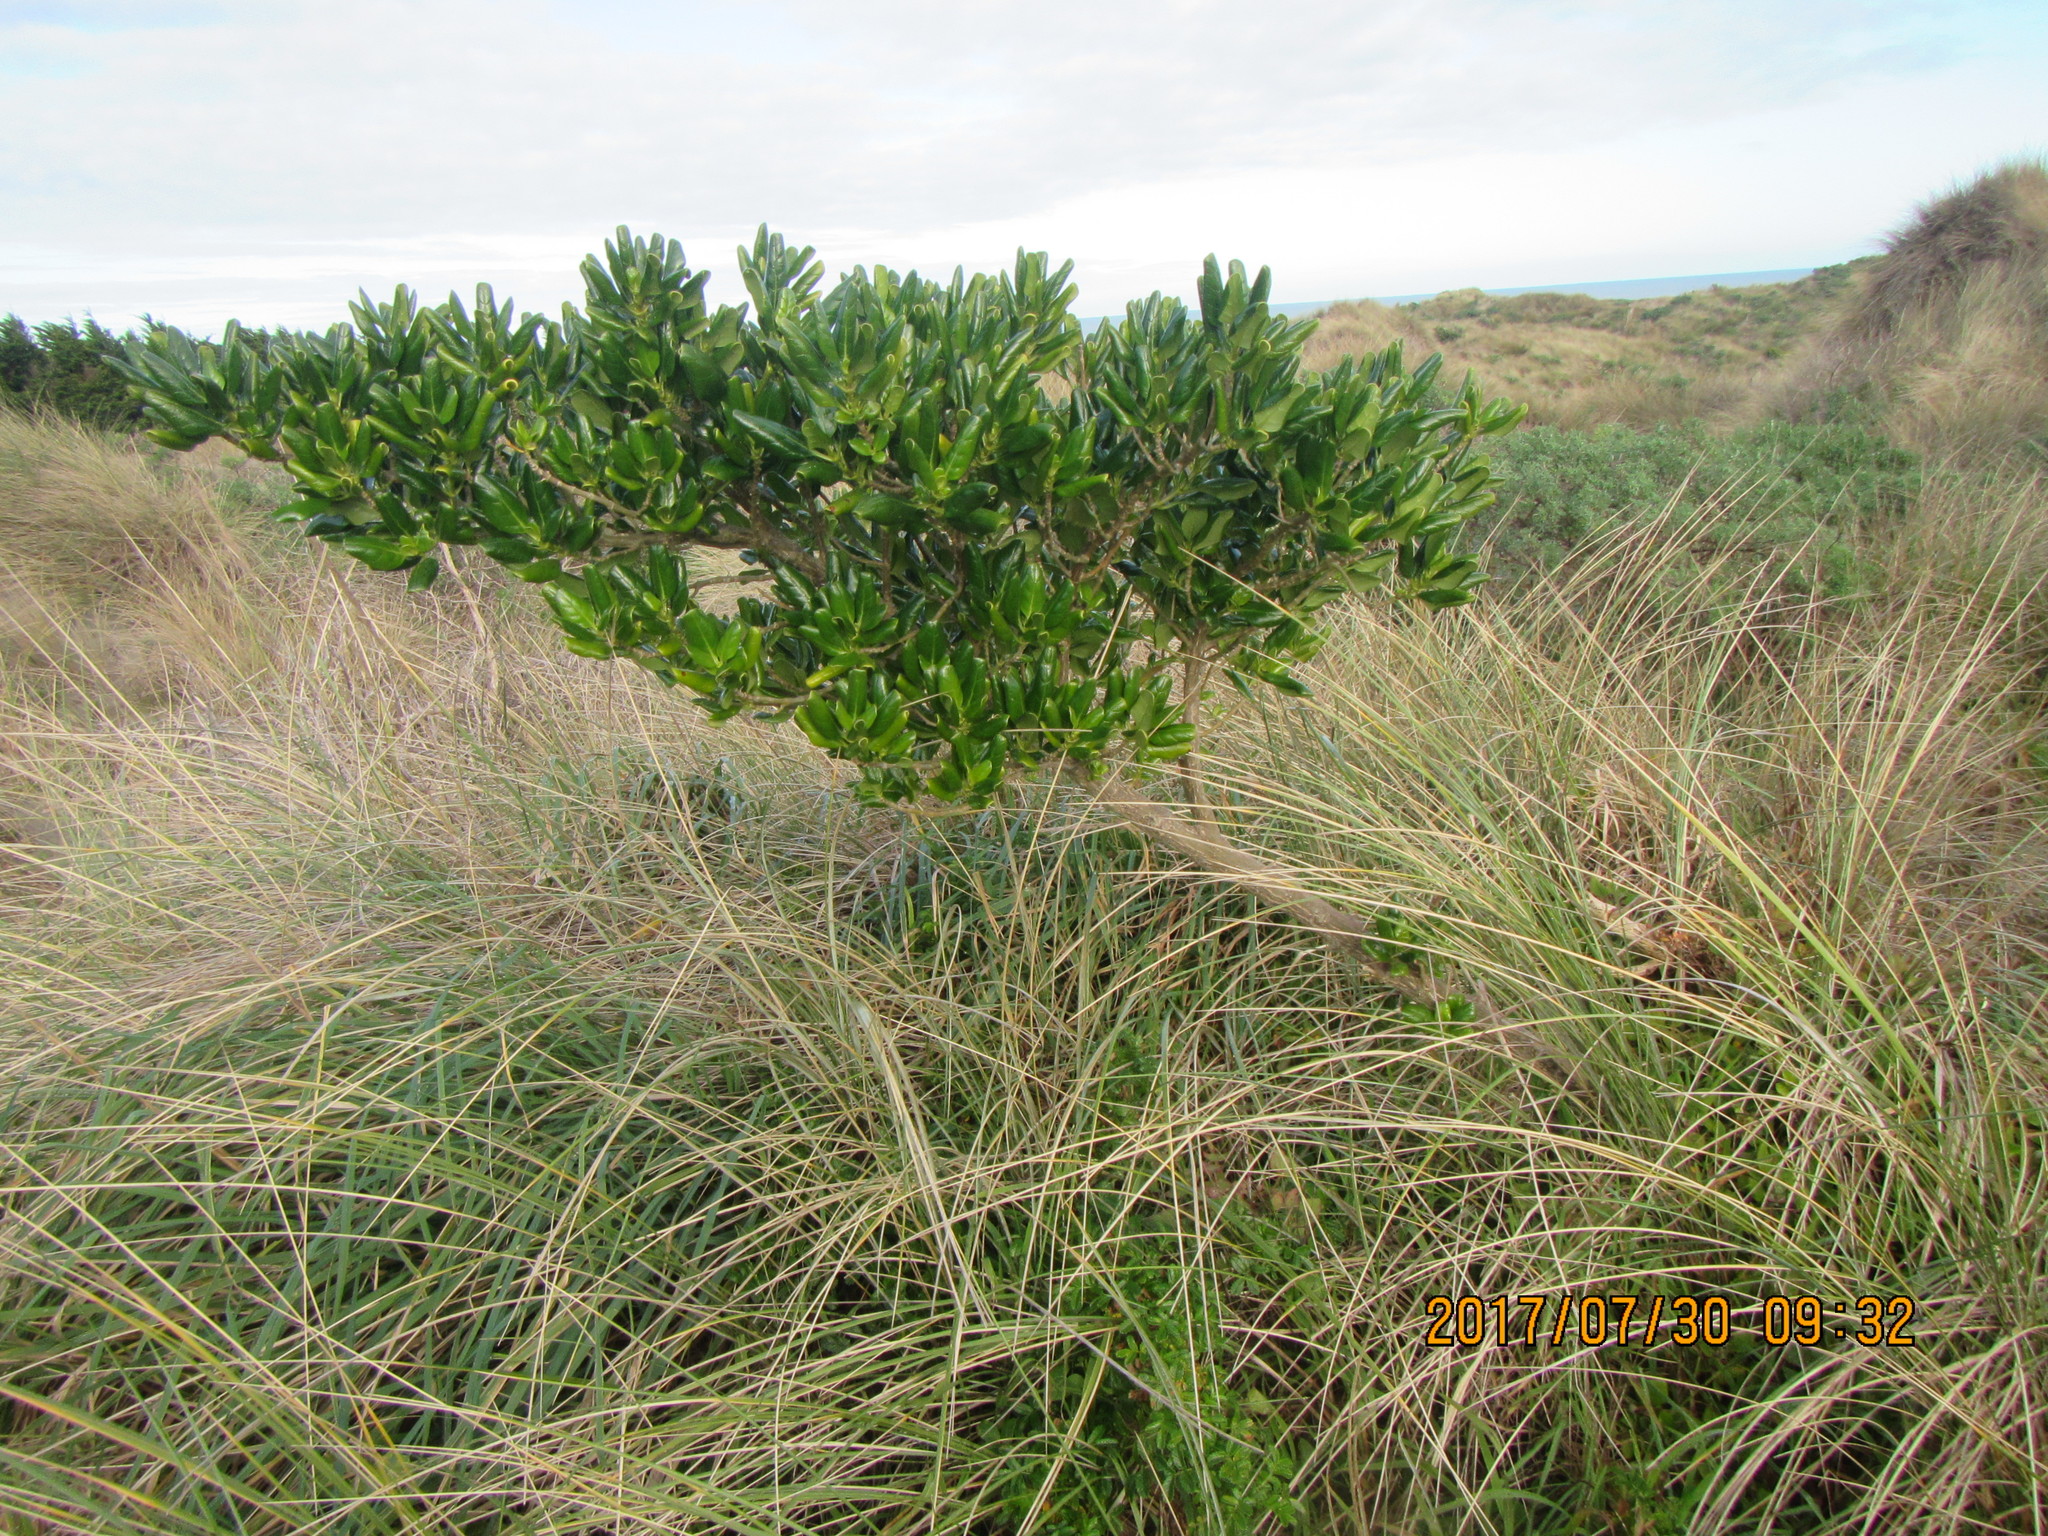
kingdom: Plantae
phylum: Tracheophyta
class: Magnoliopsida
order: Gentianales
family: Rubiaceae
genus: Coprosma
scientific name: Coprosma repens
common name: Tree bedstraw
